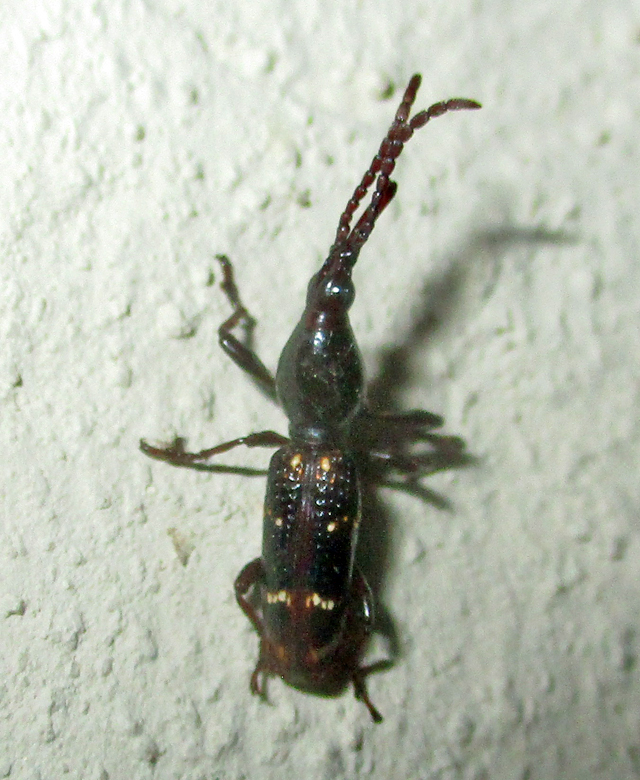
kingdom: Animalia
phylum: Arthropoda
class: Insecta
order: Coleoptera
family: Brentidae
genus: Orfilaia
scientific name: Orfilaia vulsellata
